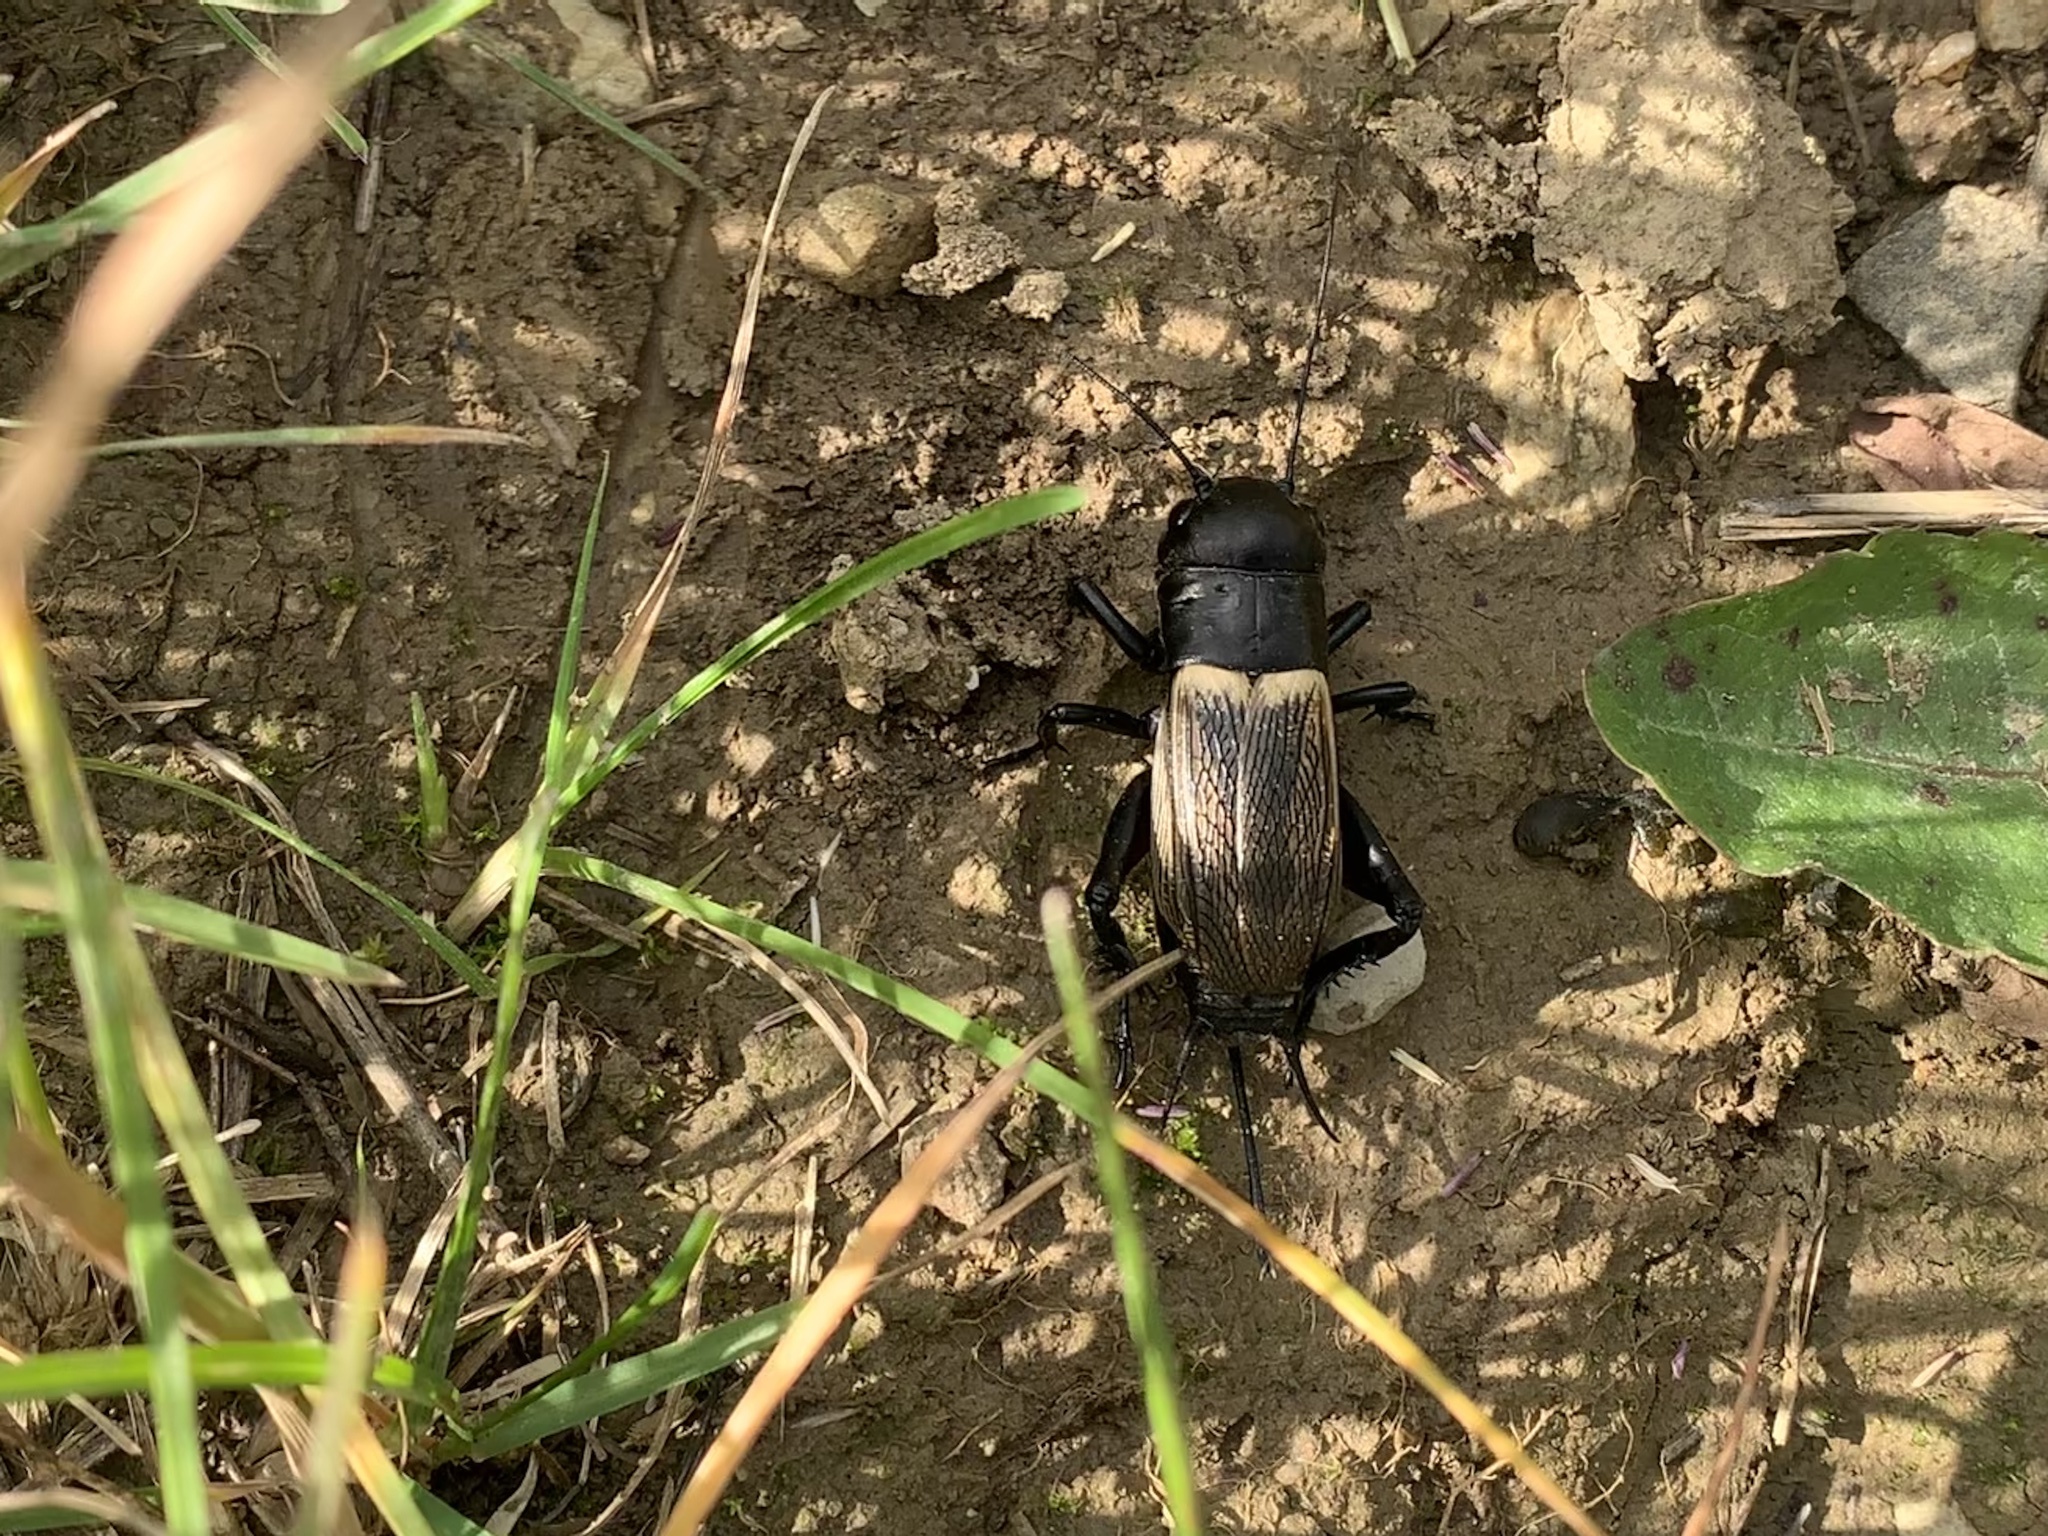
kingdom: Animalia
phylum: Arthropoda
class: Insecta
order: Orthoptera
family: Gryllidae
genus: Gryllus
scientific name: Gryllus campestris
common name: Field cricket
